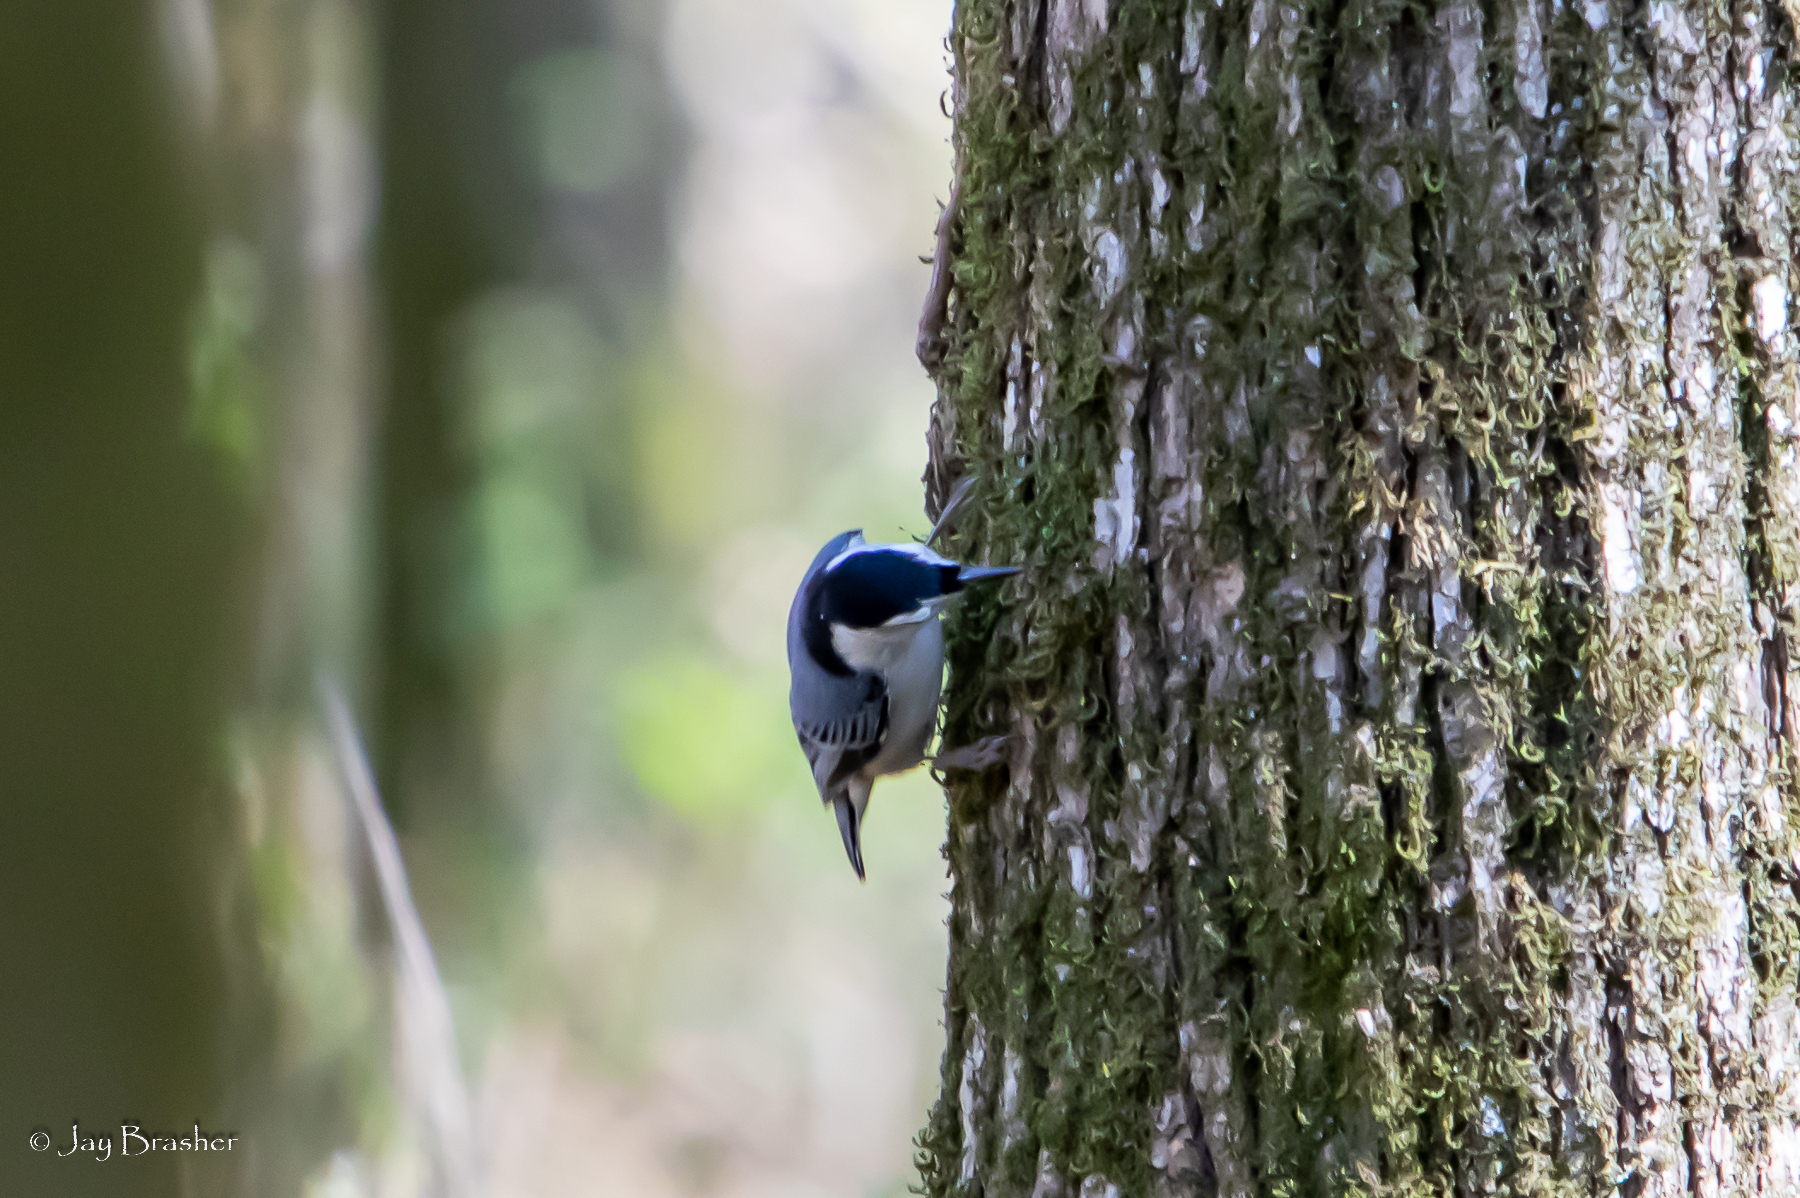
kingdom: Animalia
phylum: Chordata
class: Aves
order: Passeriformes
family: Sittidae
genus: Sitta
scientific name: Sitta carolinensis
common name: White-breasted nuthatch
